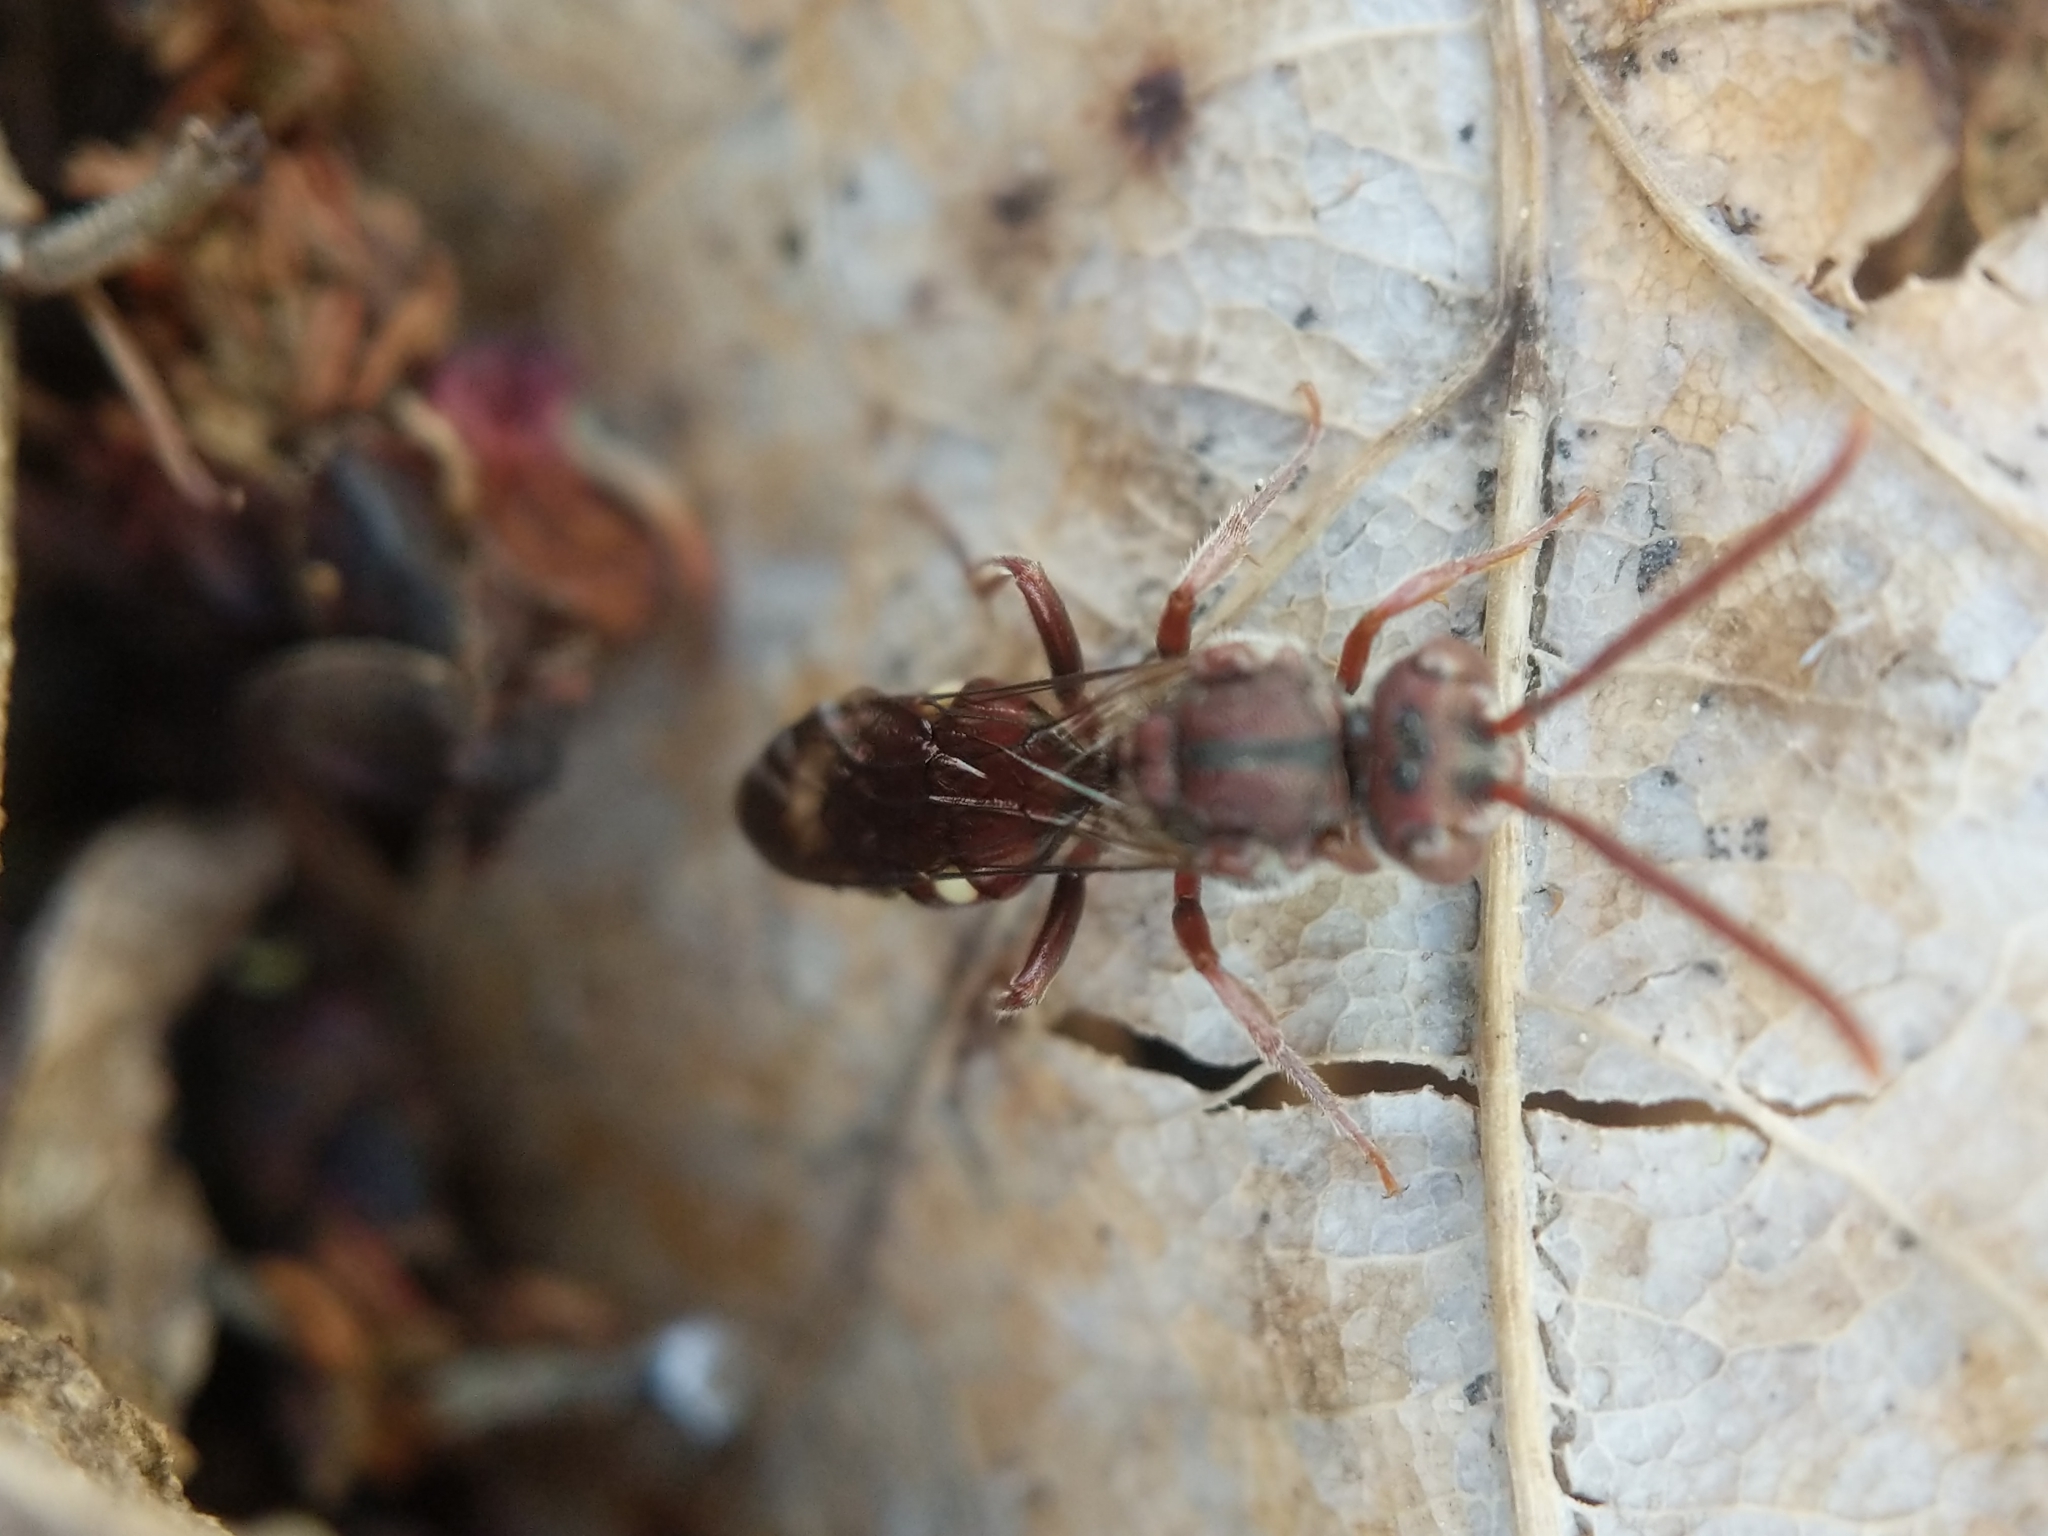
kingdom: Animalia
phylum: Arthropoda
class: Insecta
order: Hymenoptera
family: Apidae
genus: Nomada
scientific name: Nomada
